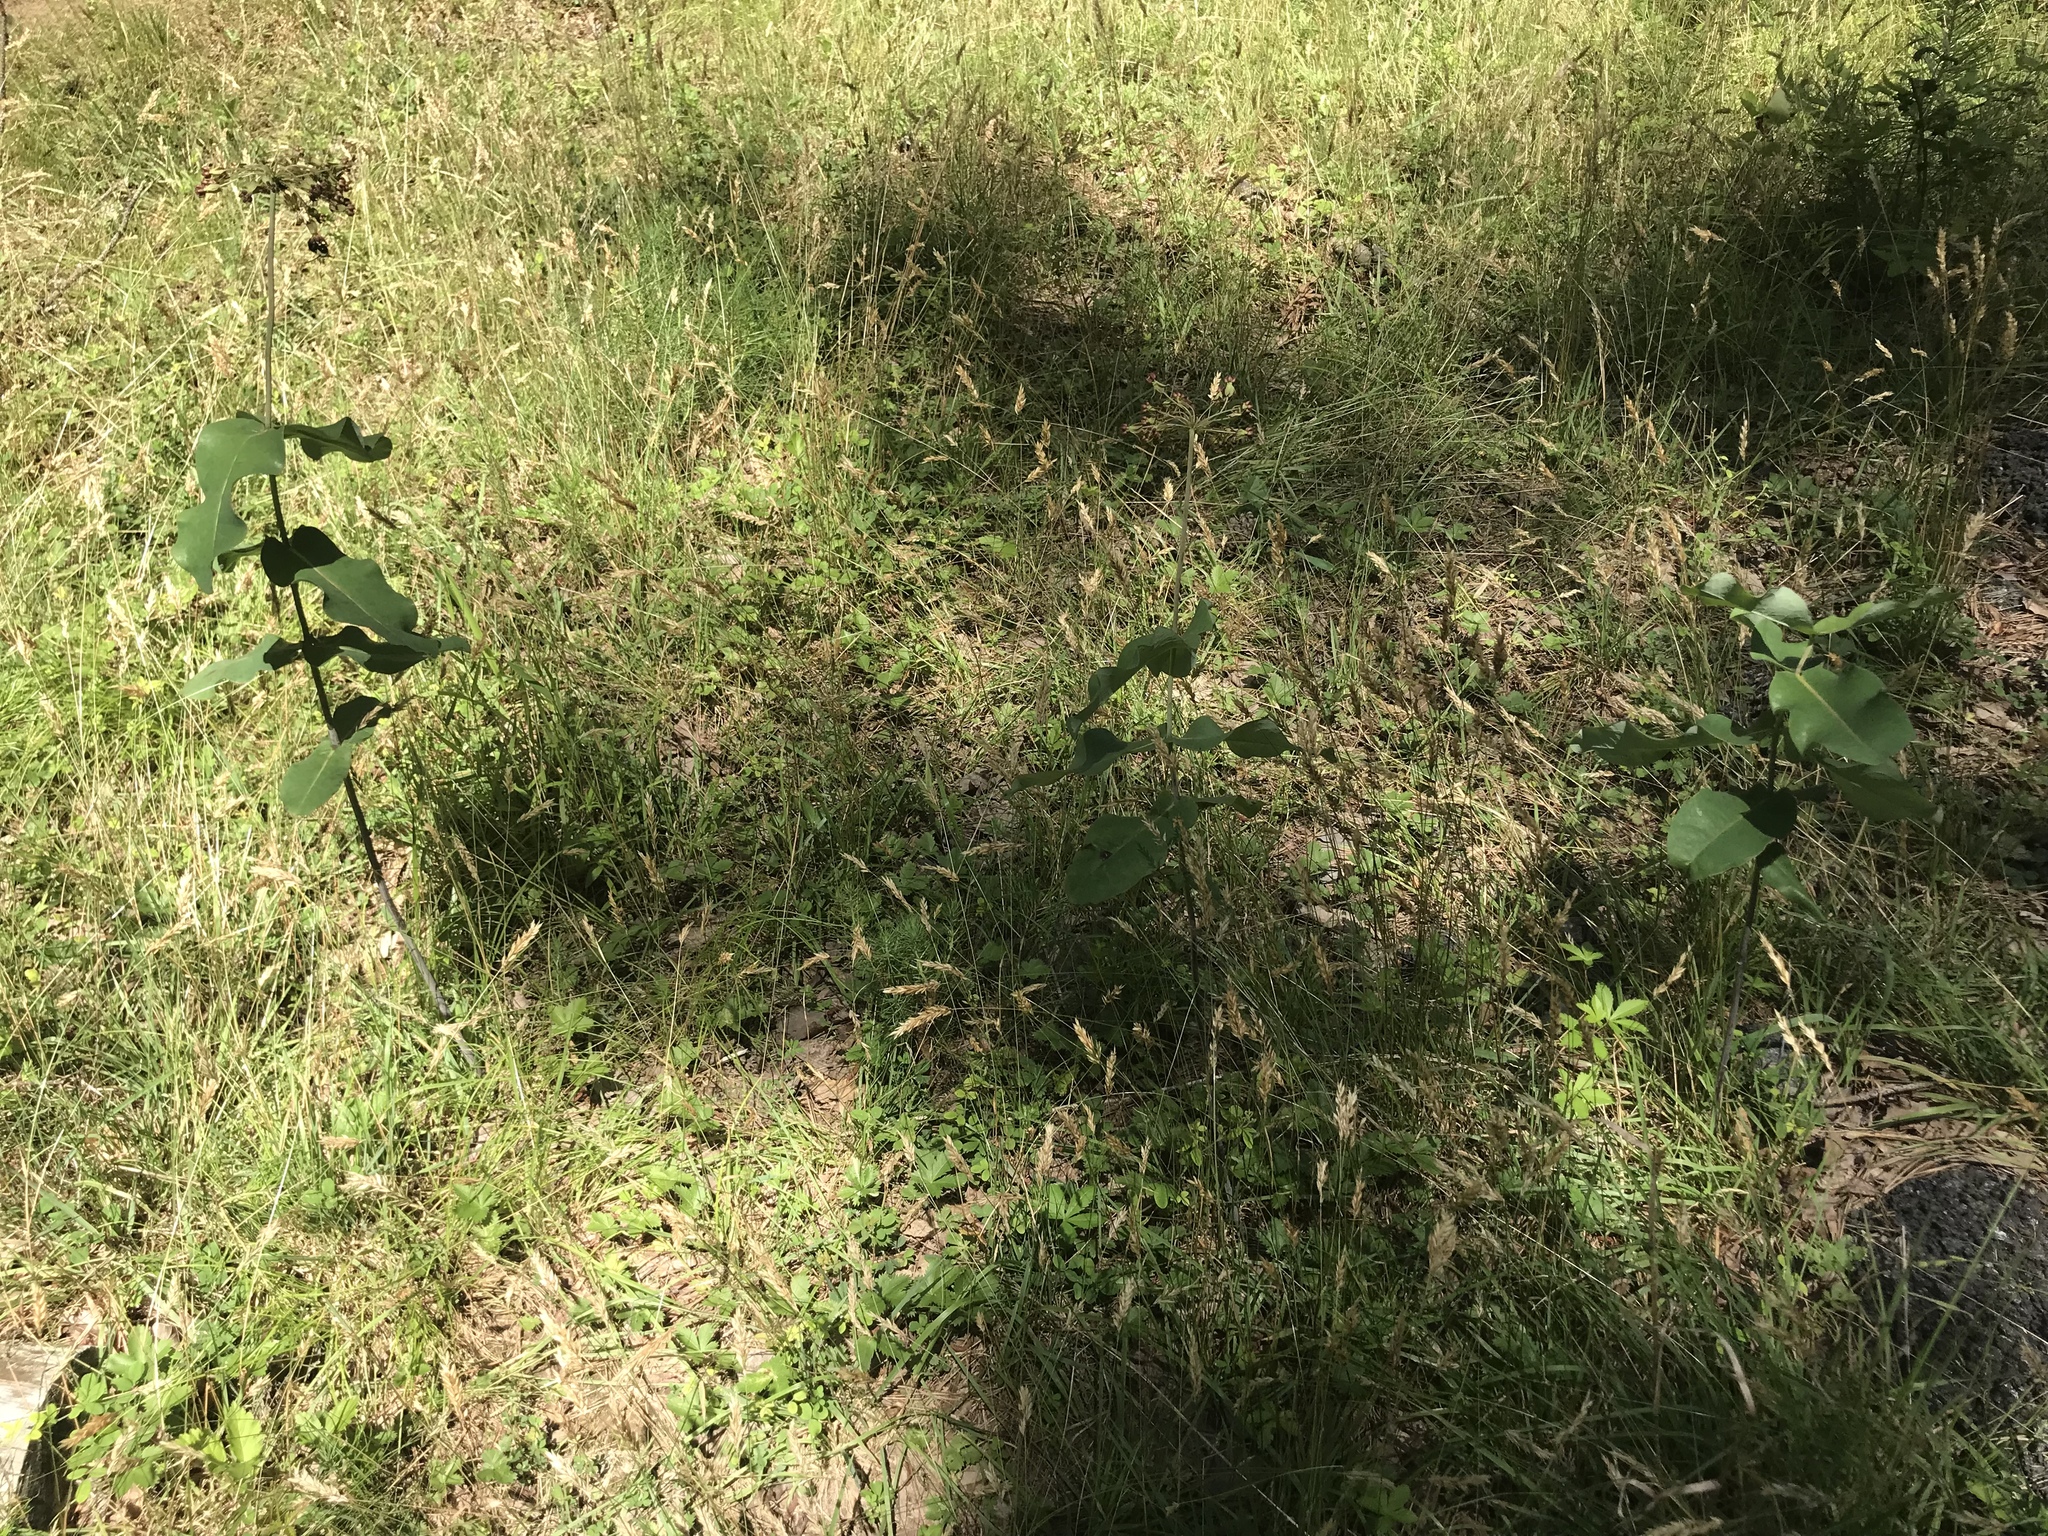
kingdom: Plantae
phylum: Tracheophyta
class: Magnoliopsida
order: Gentianales
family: Apocynaceae
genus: Asclepias
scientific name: Asclepias amplexicaulis
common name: Blunt-leaf milkweed
